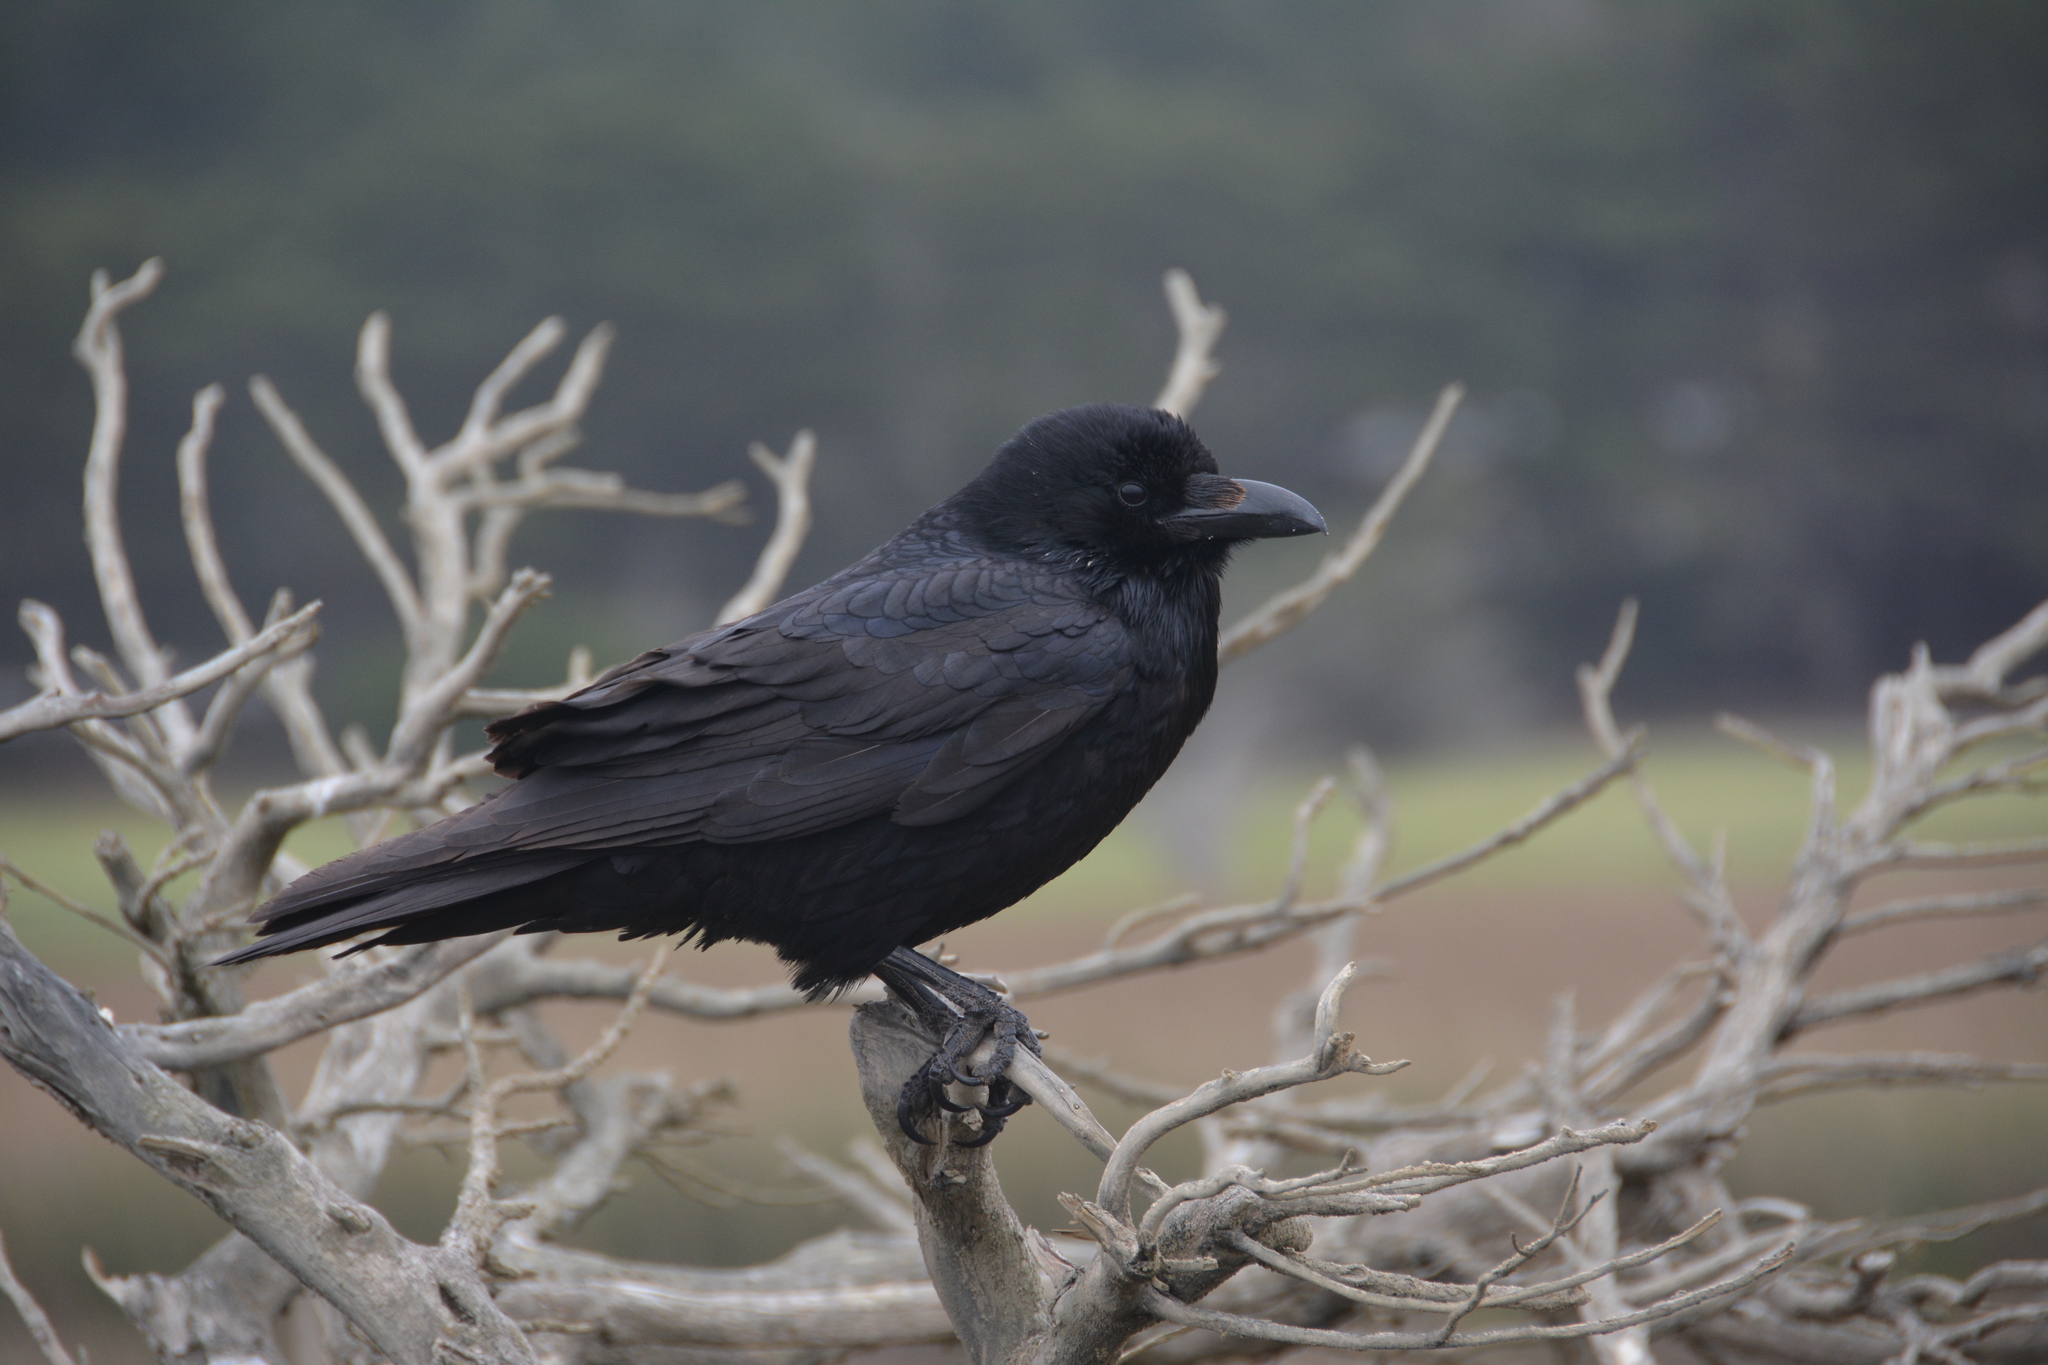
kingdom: Animalia
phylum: Chordata
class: Aves
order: Passeriformes
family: Corvidae
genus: Corvus
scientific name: Corvus corax
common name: Common raven
